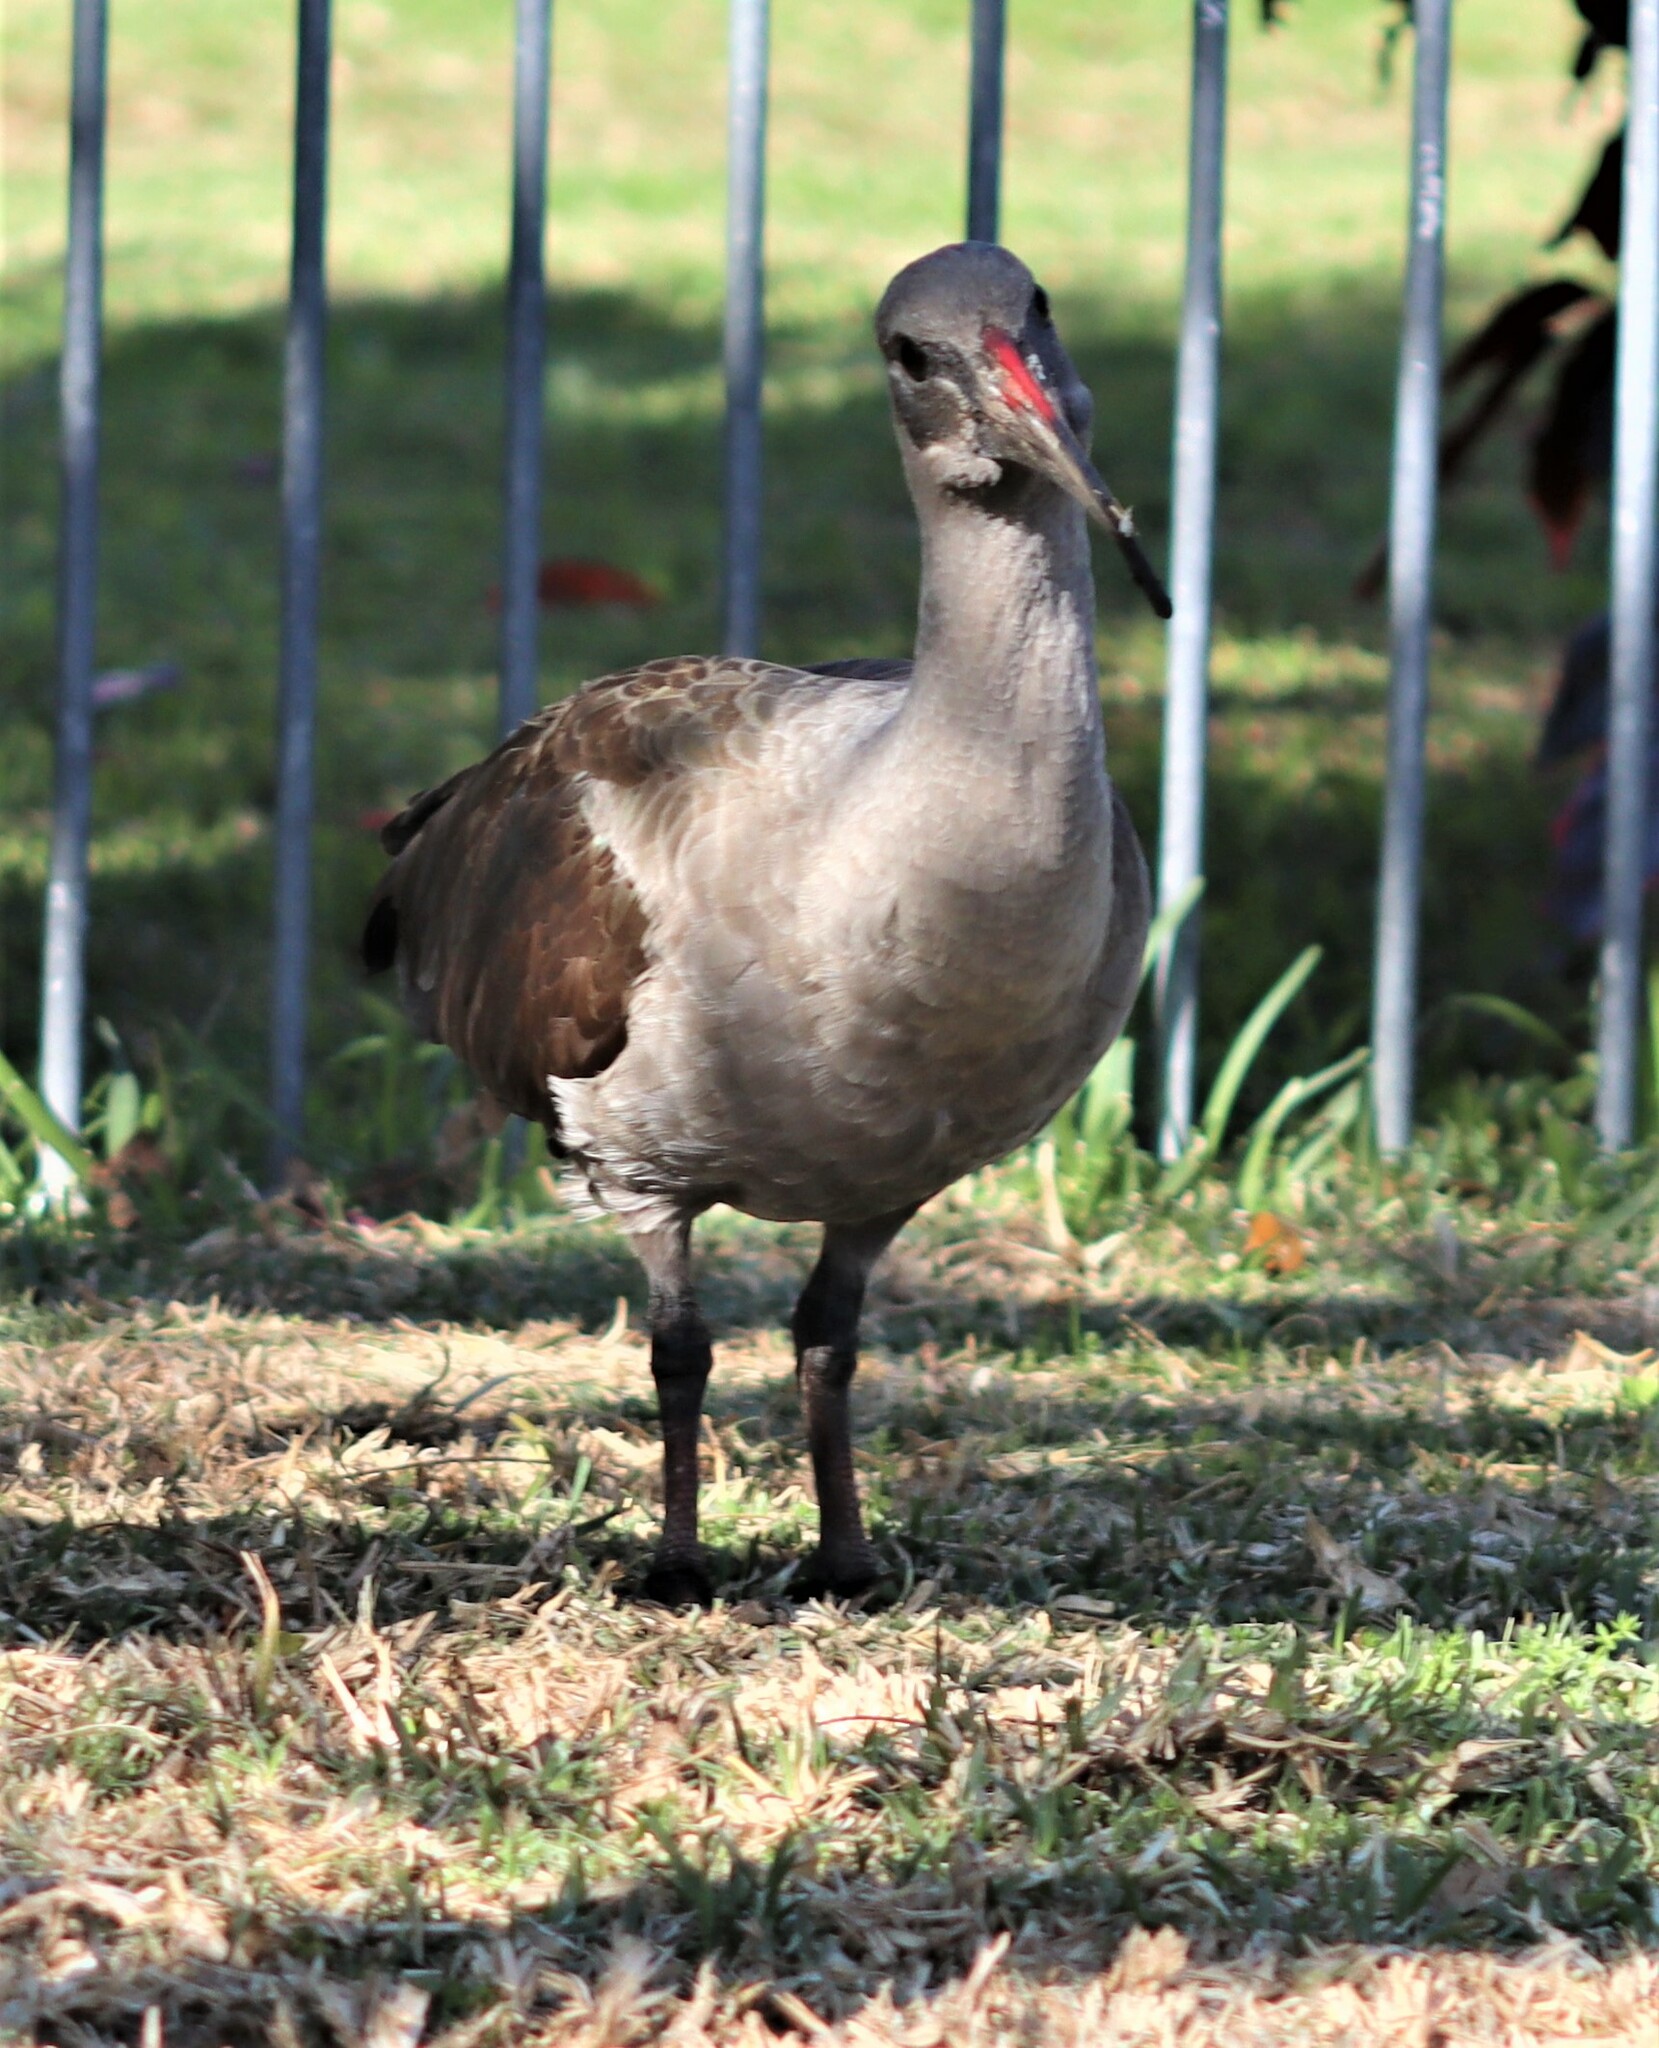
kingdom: Animalia
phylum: Chordata
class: Aves
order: Pelecaniformes
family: Threskiornithidae
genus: Bostrychia
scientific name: Bostrychia hagedash
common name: Hadada ibis
